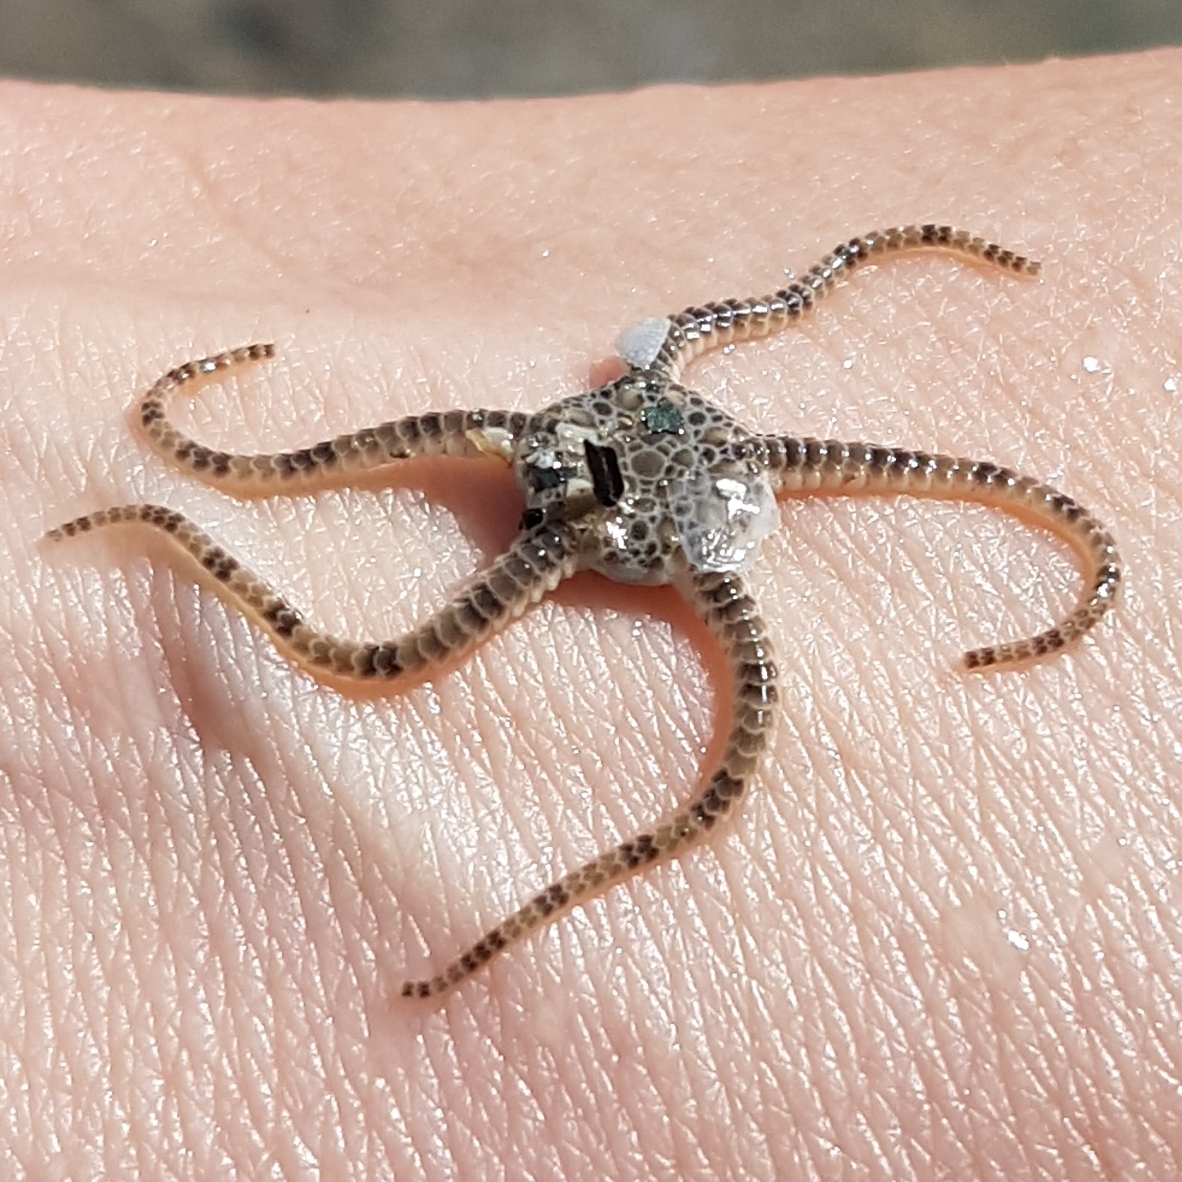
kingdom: Animalia
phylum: Echinodermata
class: Ophiuroidea
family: Ophiuridae
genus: Ophiura
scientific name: Ophiura ophiura
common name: Serpent star
